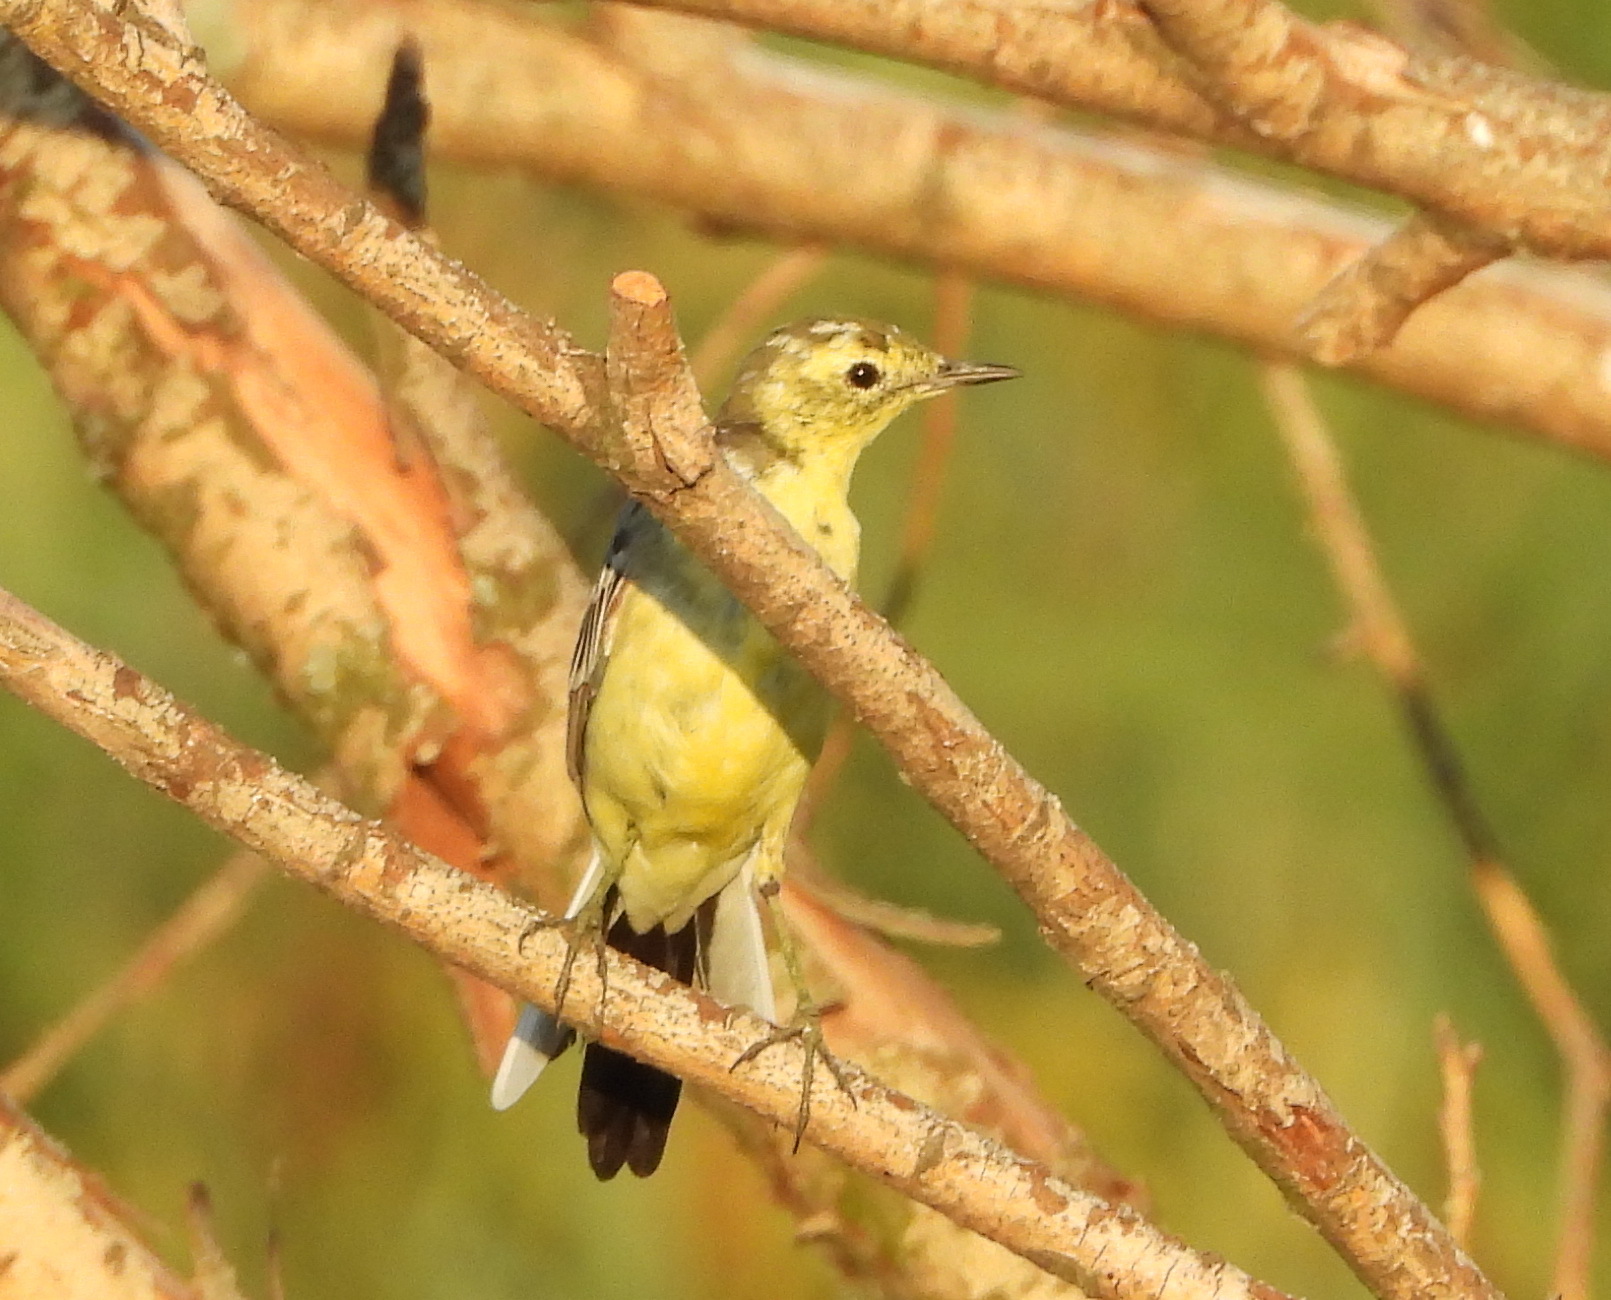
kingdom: Animalia
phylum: Chordata
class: Aves
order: Passeriformes
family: Motacillidae
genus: Motacilla
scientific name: Motacilla citreola
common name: Citrine wagtail
